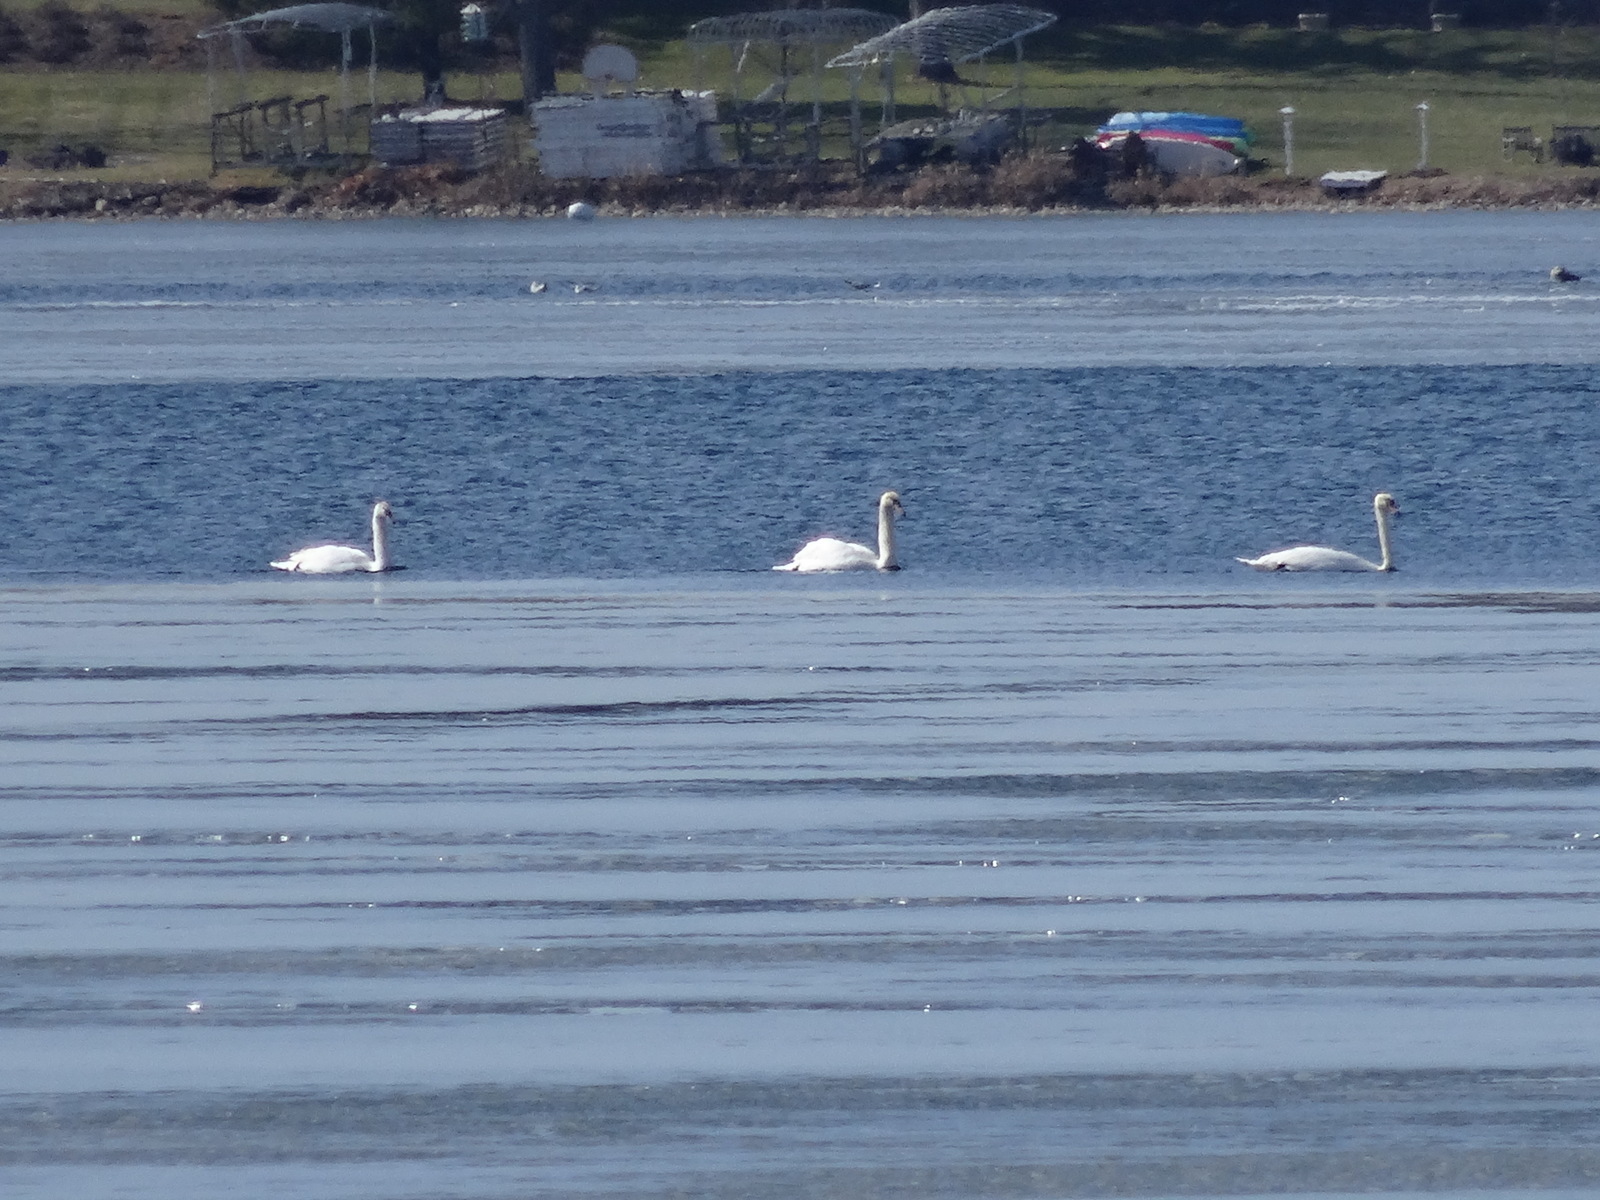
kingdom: Animalia
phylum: Chordata
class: Aves
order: Anseriformes
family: Anatidae
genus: Cygnus
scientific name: Cygnus olor
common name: Mute swan
